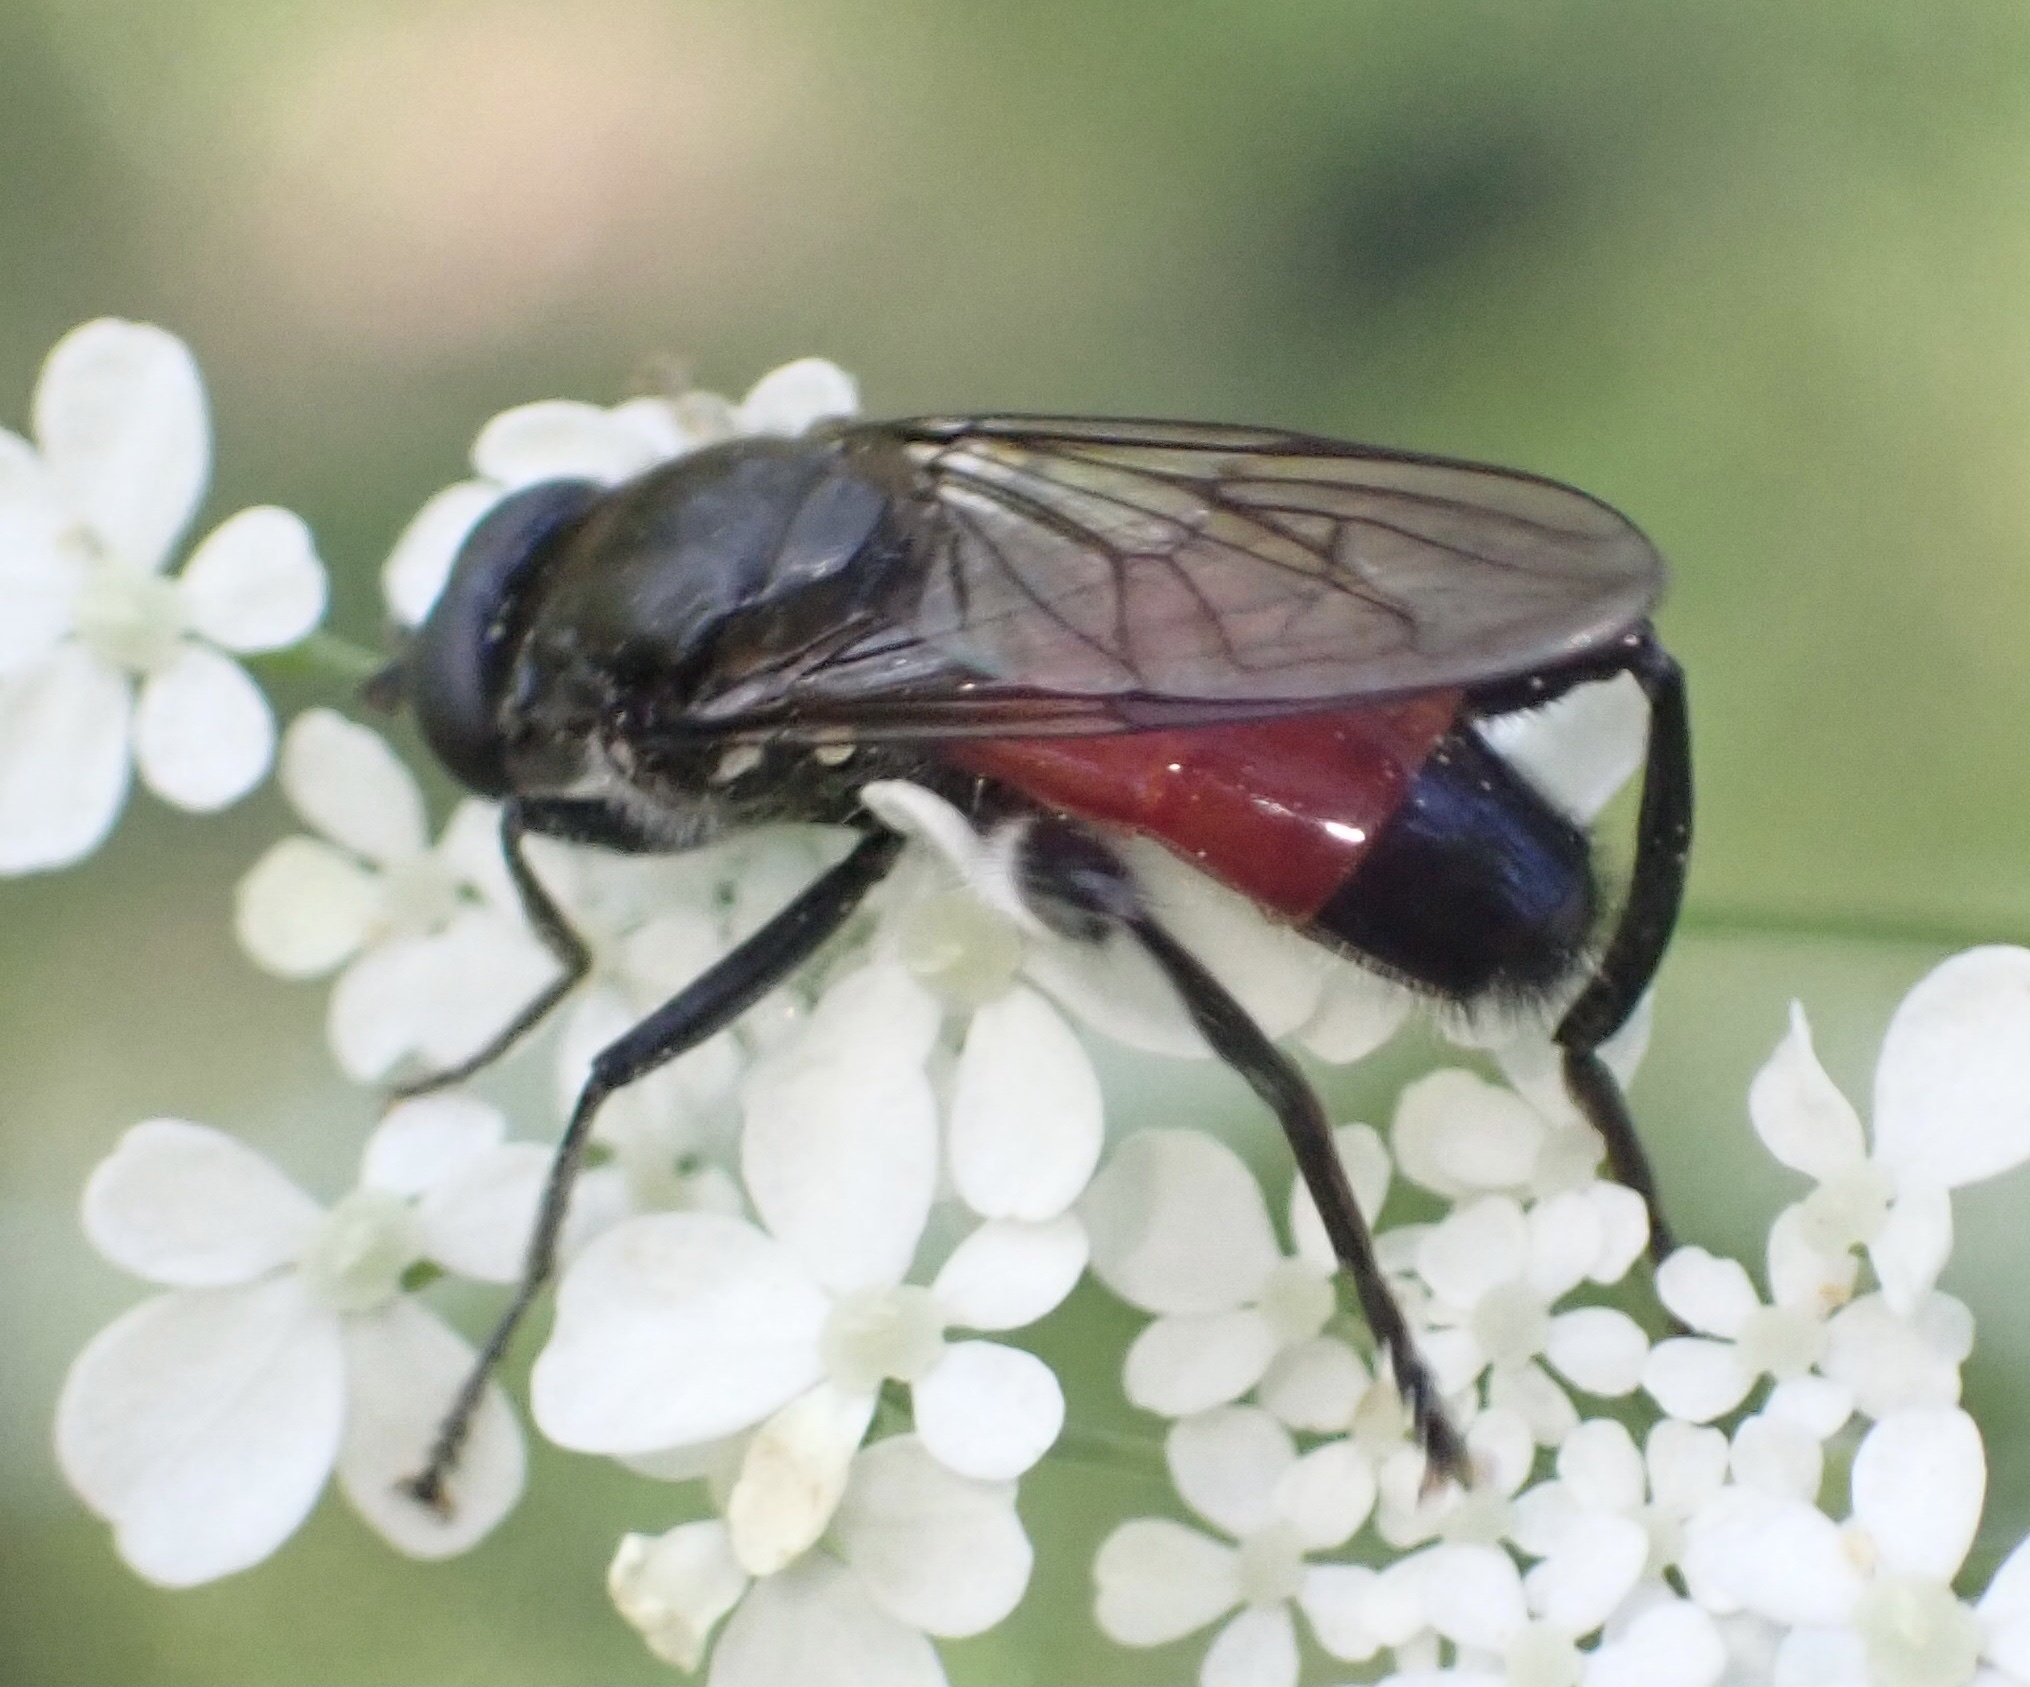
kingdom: Animalia
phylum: Arthropoda
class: Insecta
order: Diptera
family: Syrphidae
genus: Brachypalpoides
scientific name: Brachypalpoides lenta
